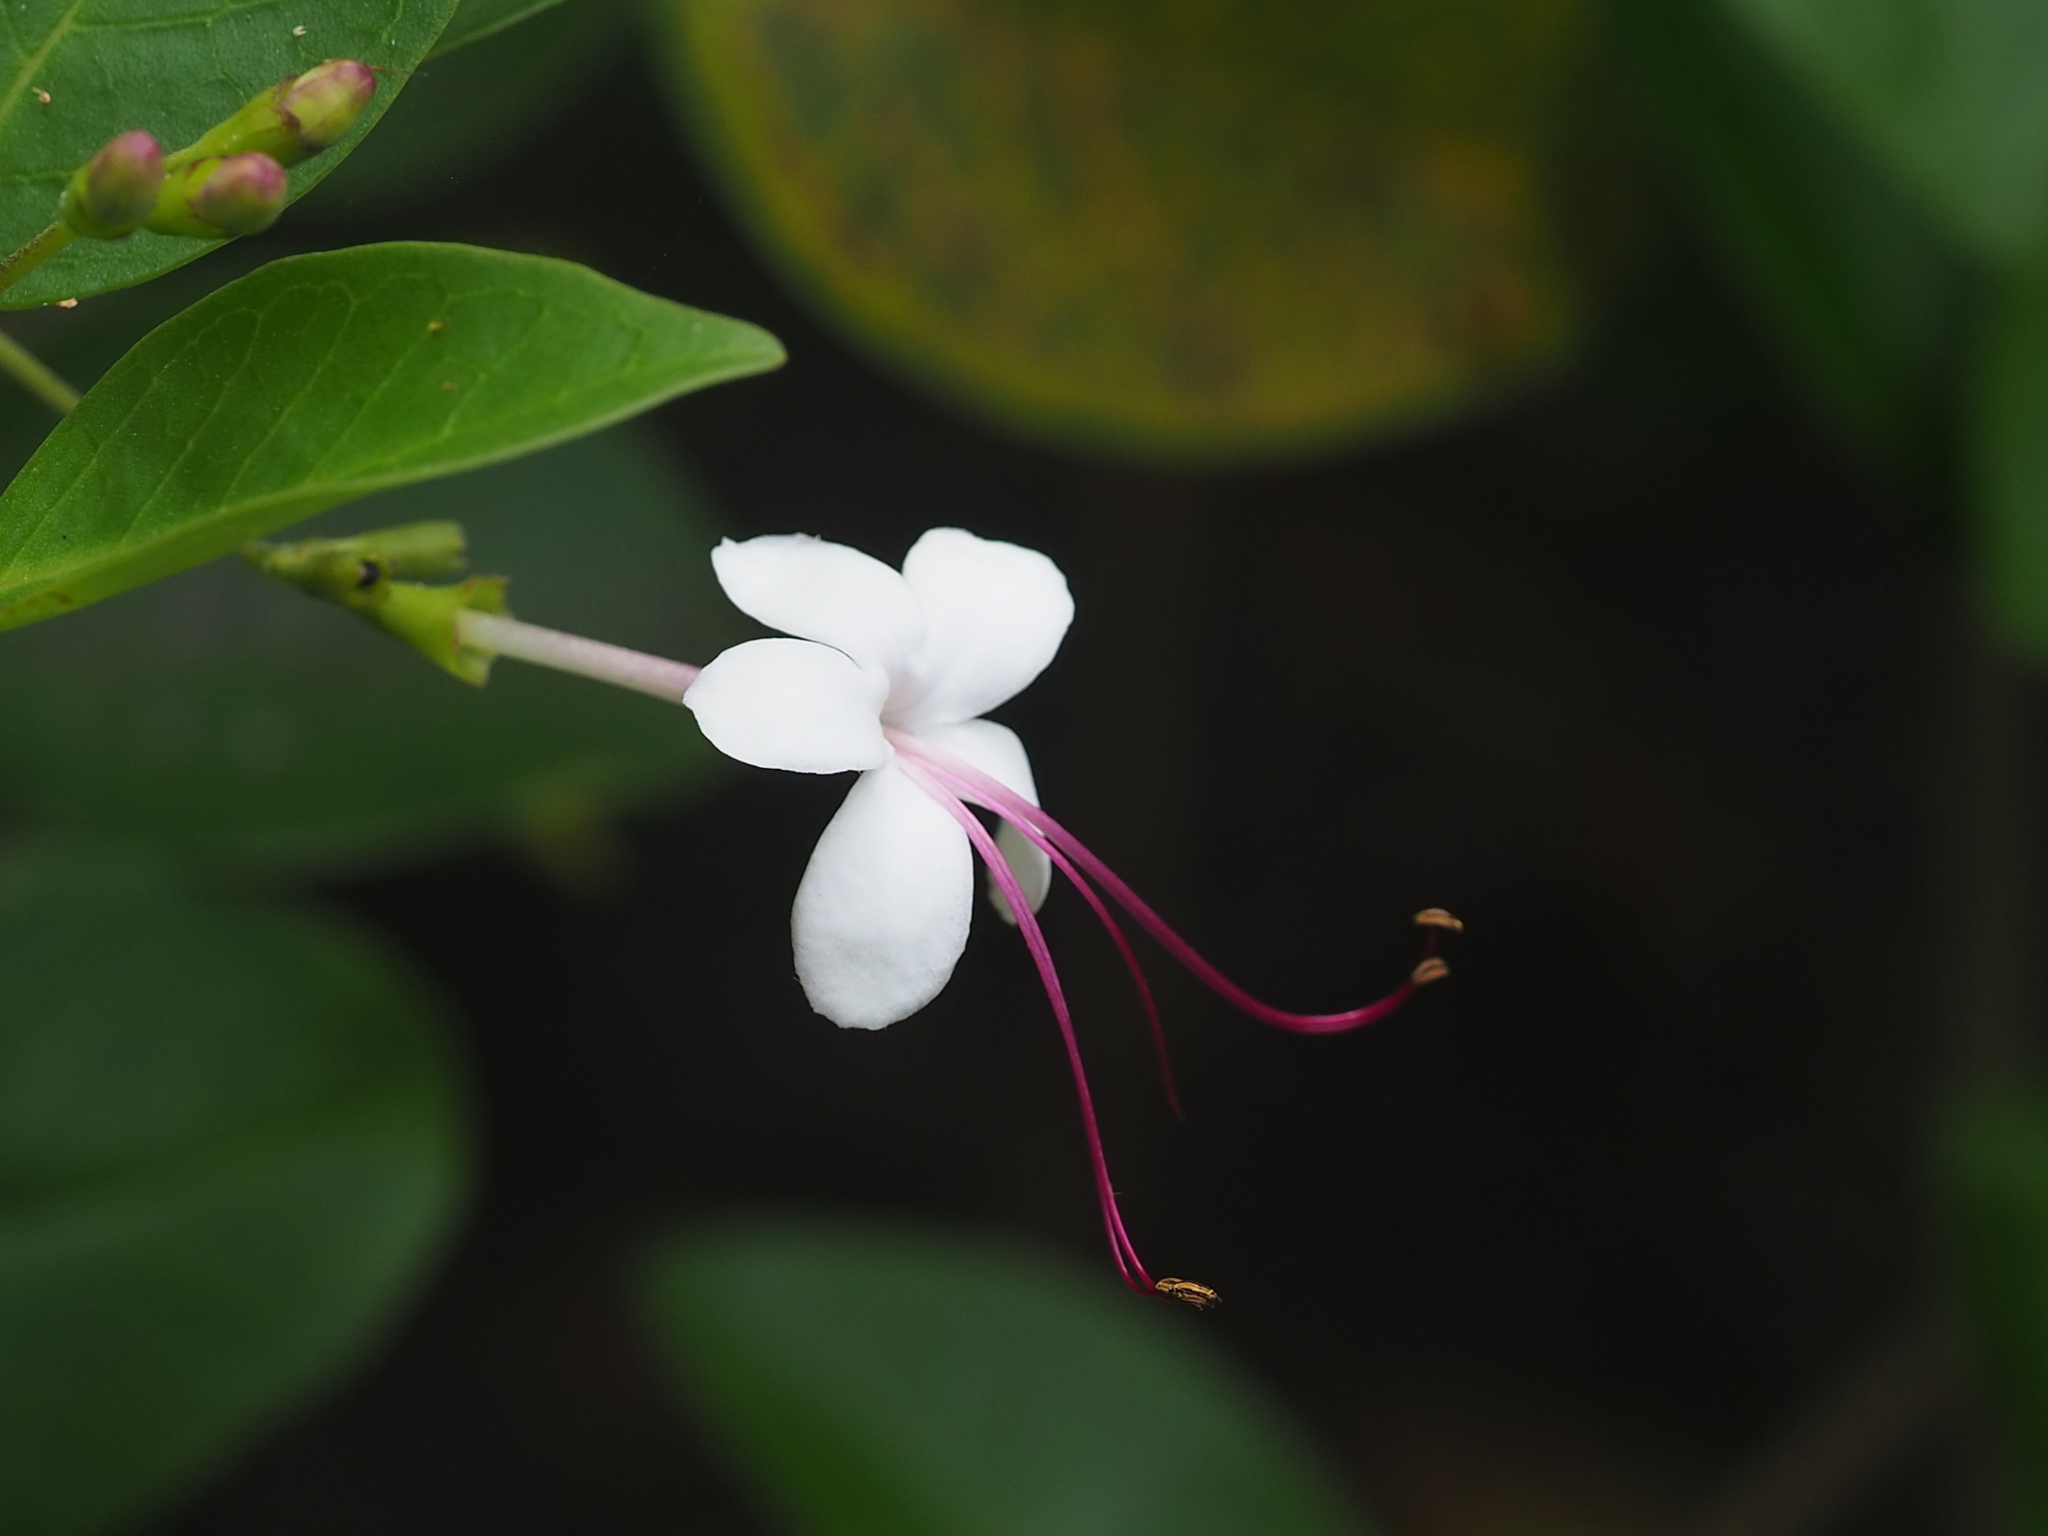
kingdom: Plantae
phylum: Tracheophyta
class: Magnoliopsida
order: Lamiales
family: Lamiaceae
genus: Volkameria
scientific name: Volkameria inermis
